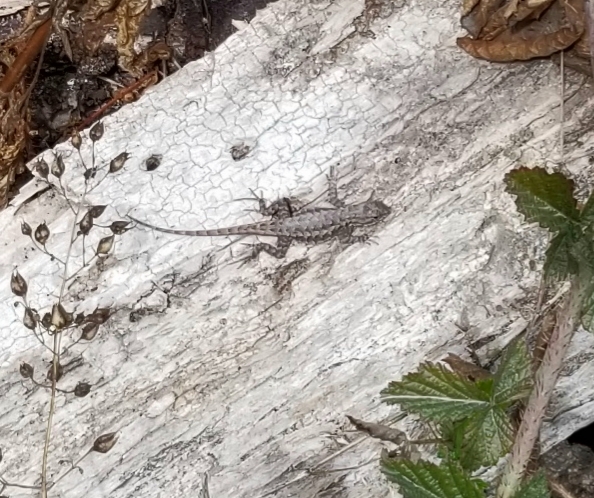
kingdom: Animalia
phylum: Chordata
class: Squamata
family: Phrynosomatidae
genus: Sceloporus
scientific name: Sceloporus occidentalis
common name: Western fence lizard
